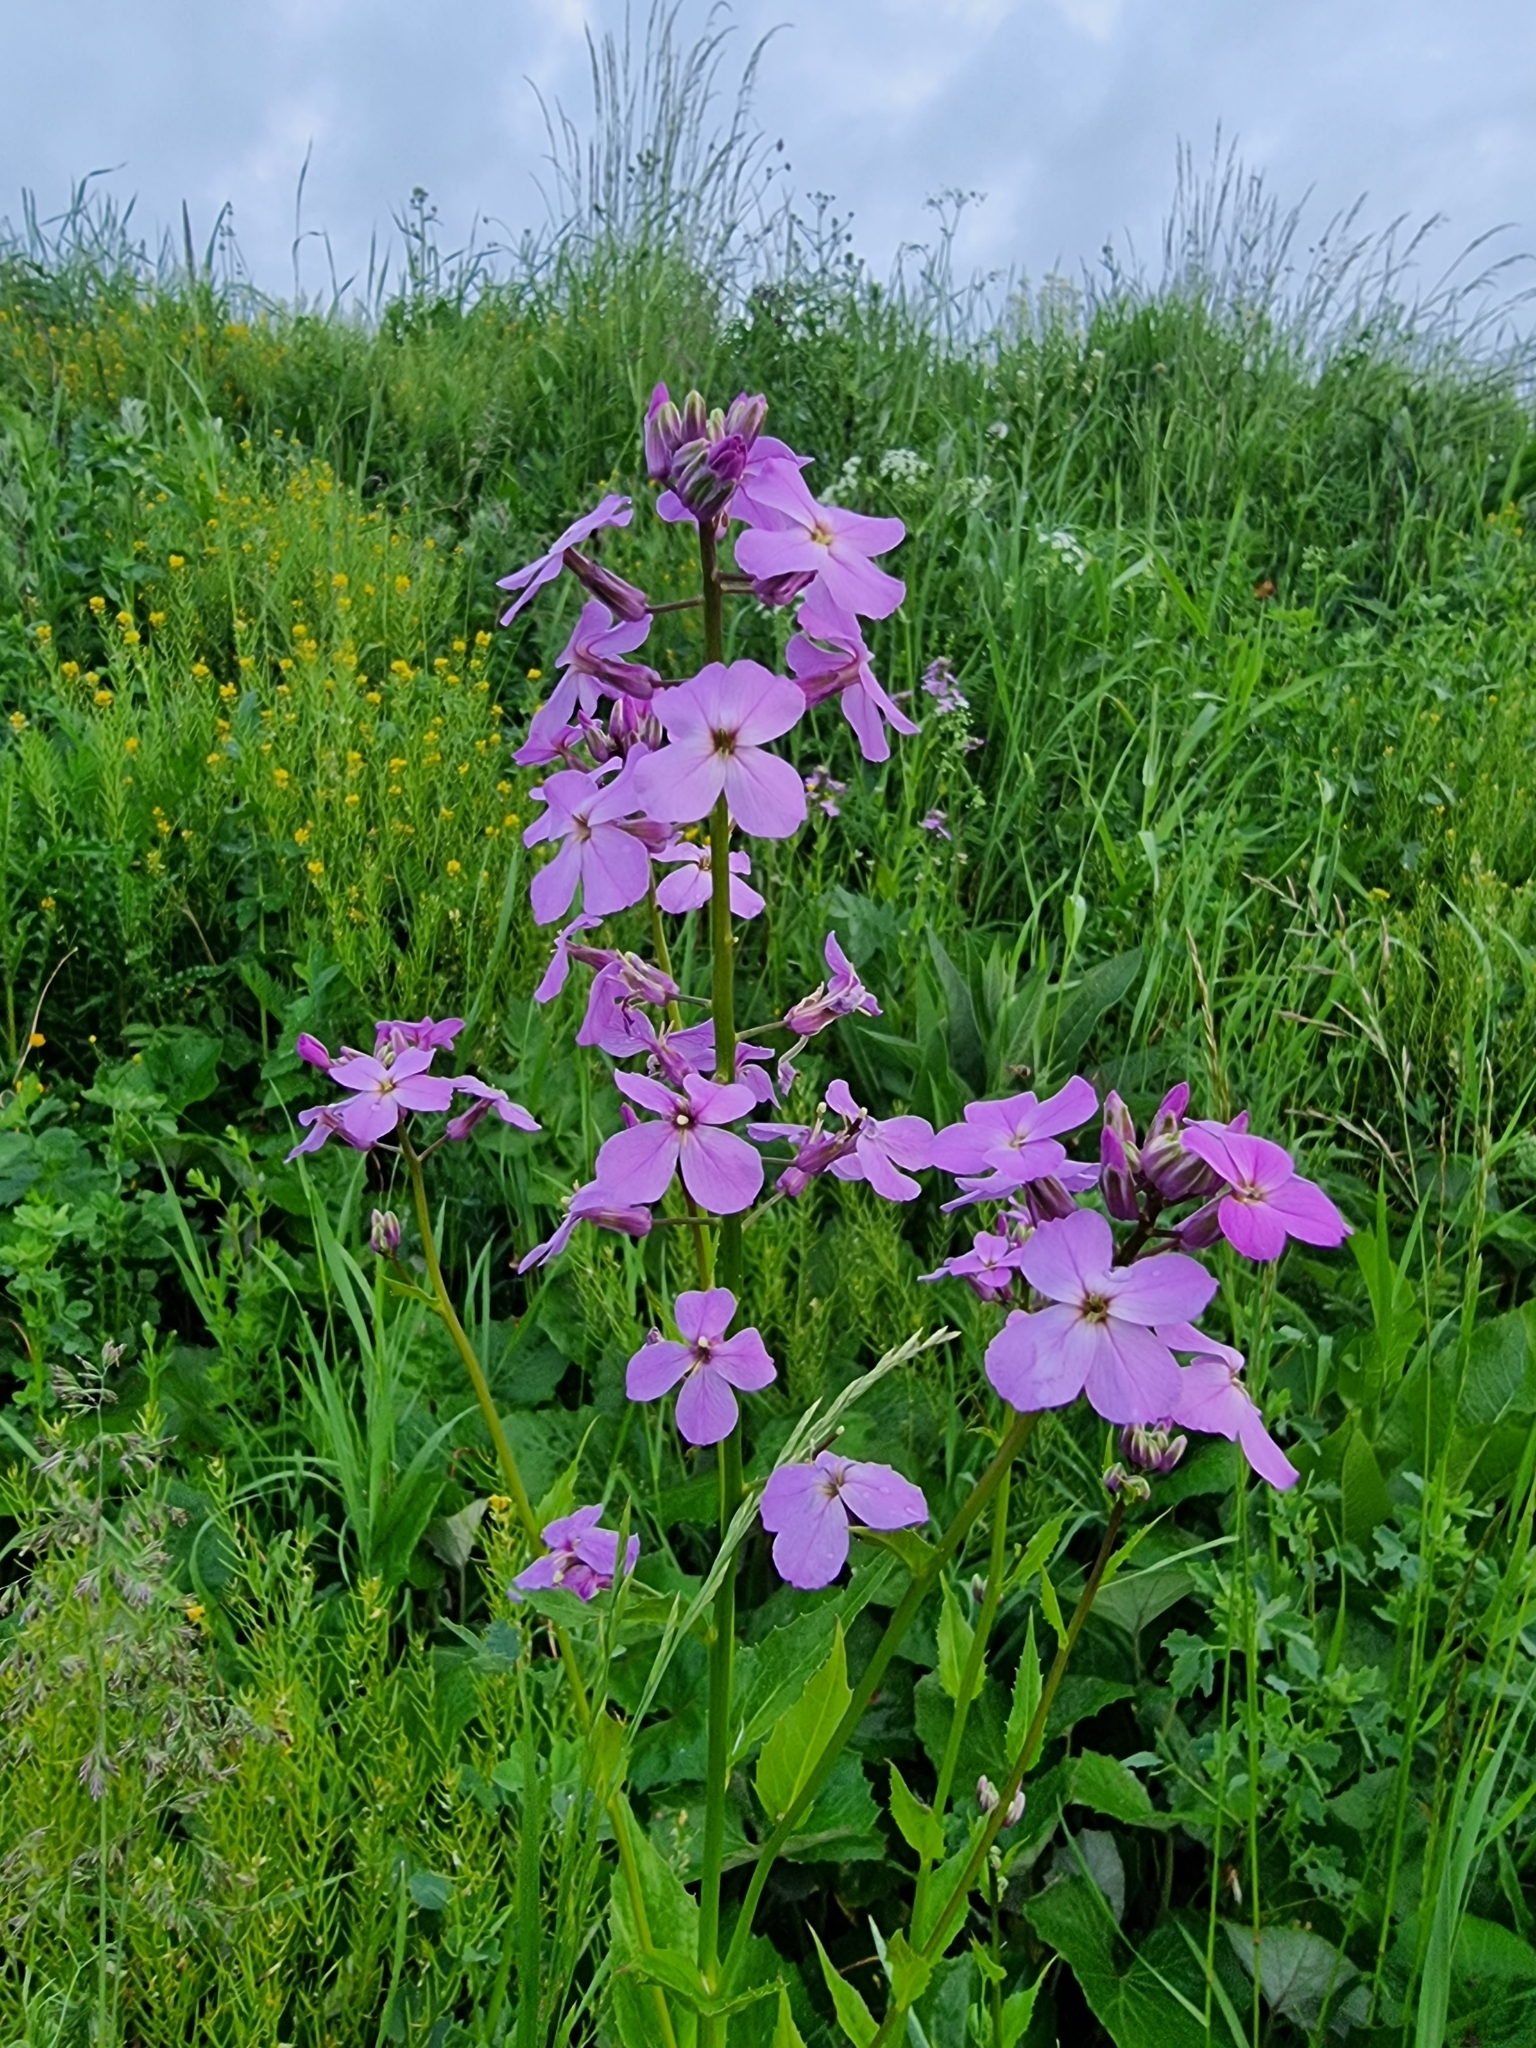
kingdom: Plantae
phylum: Tracheophyta
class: Magnoliopsida
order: Brassicales
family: Brassicaceae
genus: Hesperis
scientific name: Hesperis matronalis
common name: Dame's-violet
